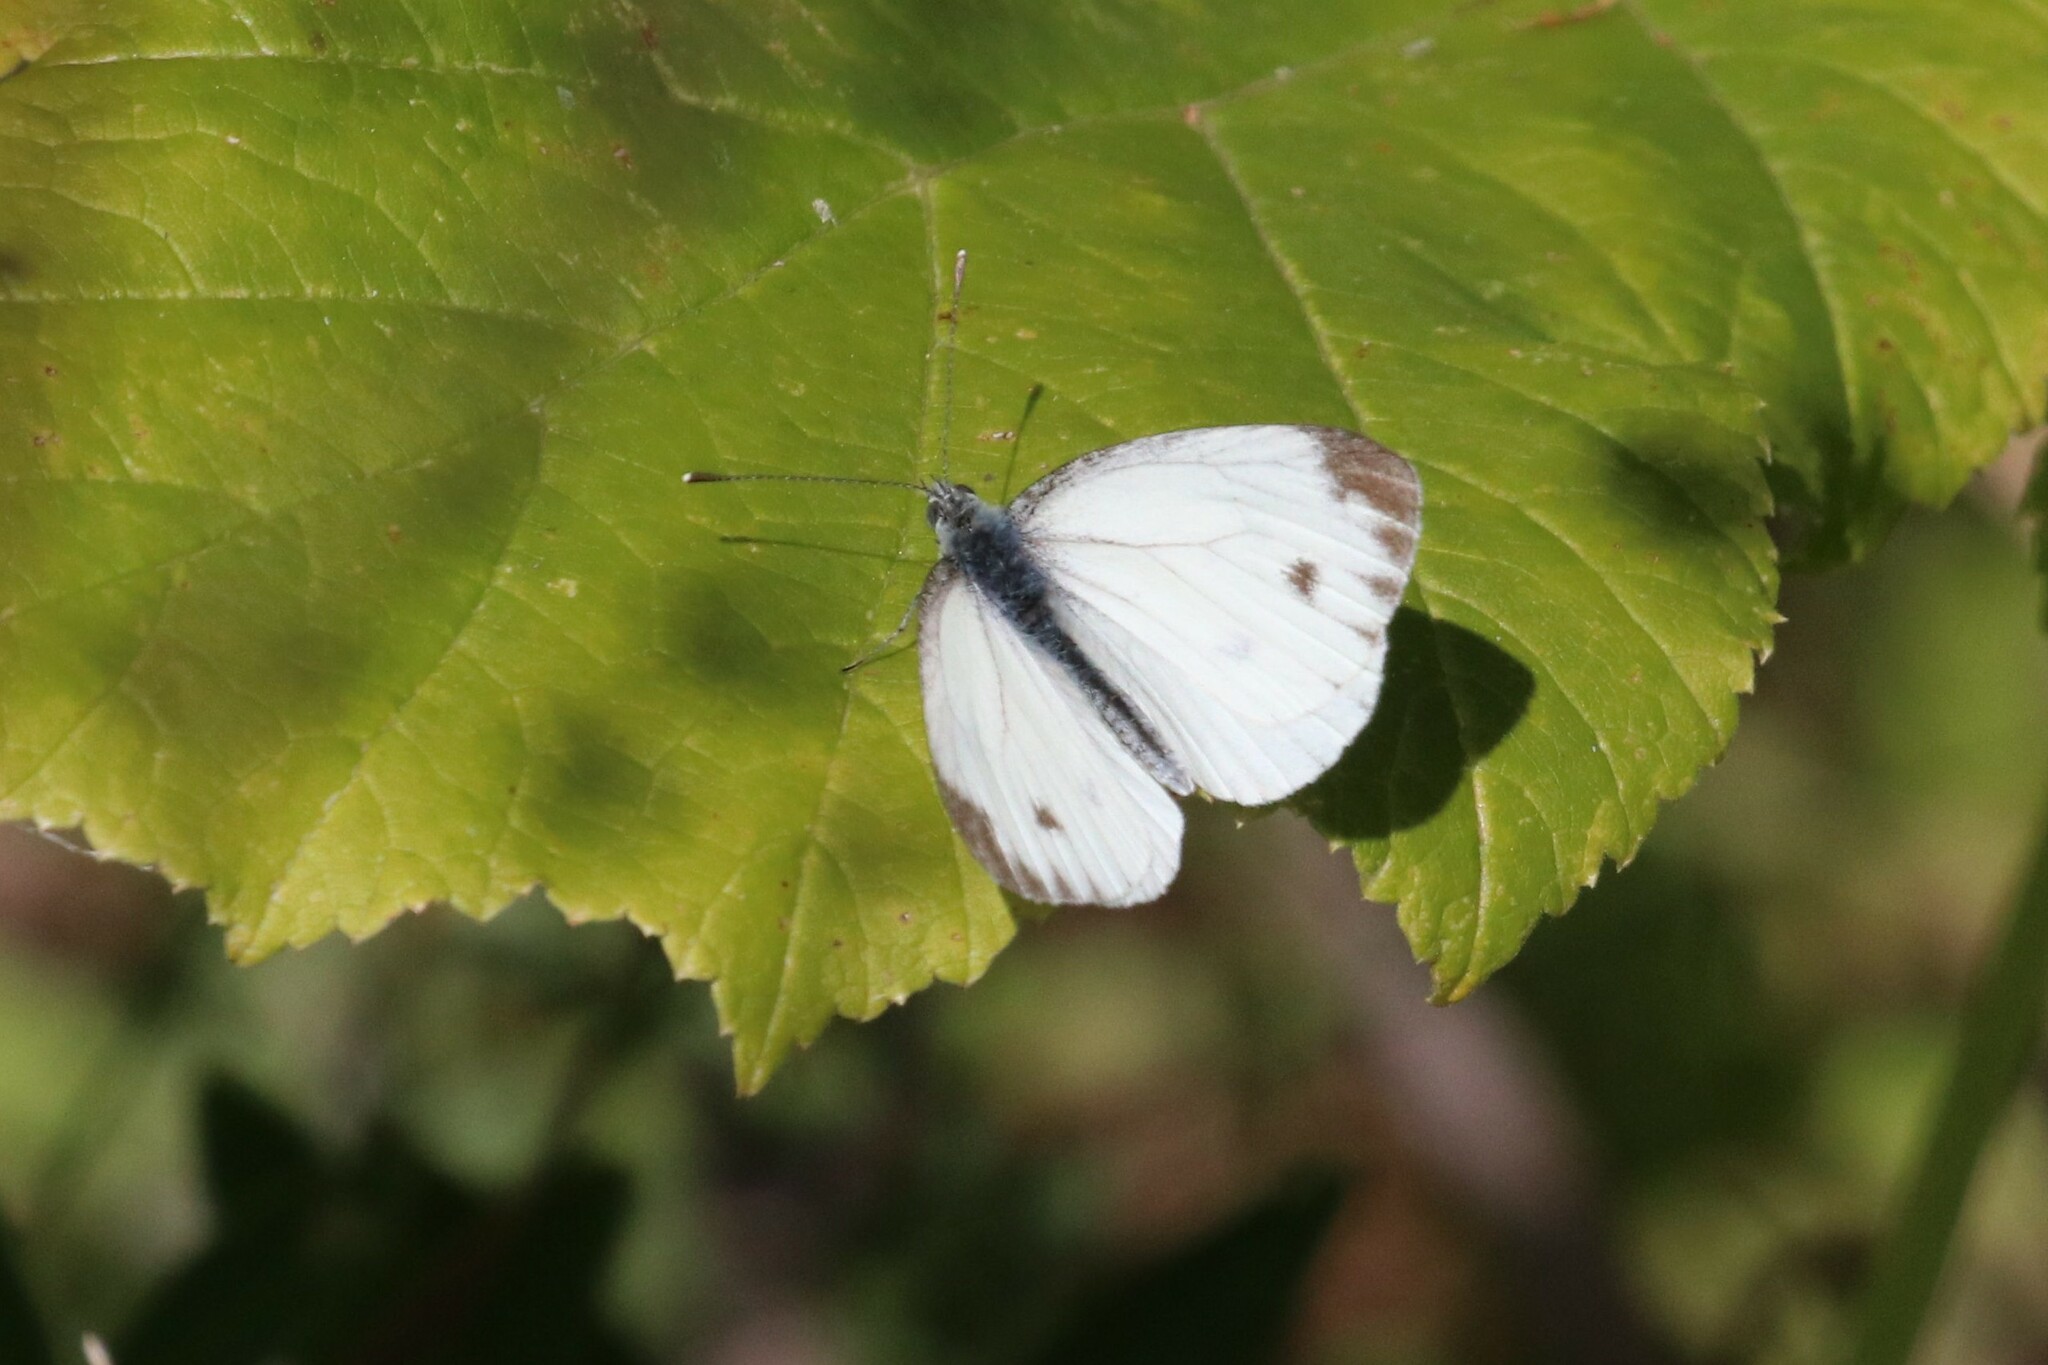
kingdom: Animalia
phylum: Arthropoda
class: Insecta
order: Lepidoptera
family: Pieridae
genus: Pieris
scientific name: Pieris napi
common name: Green-veined white
